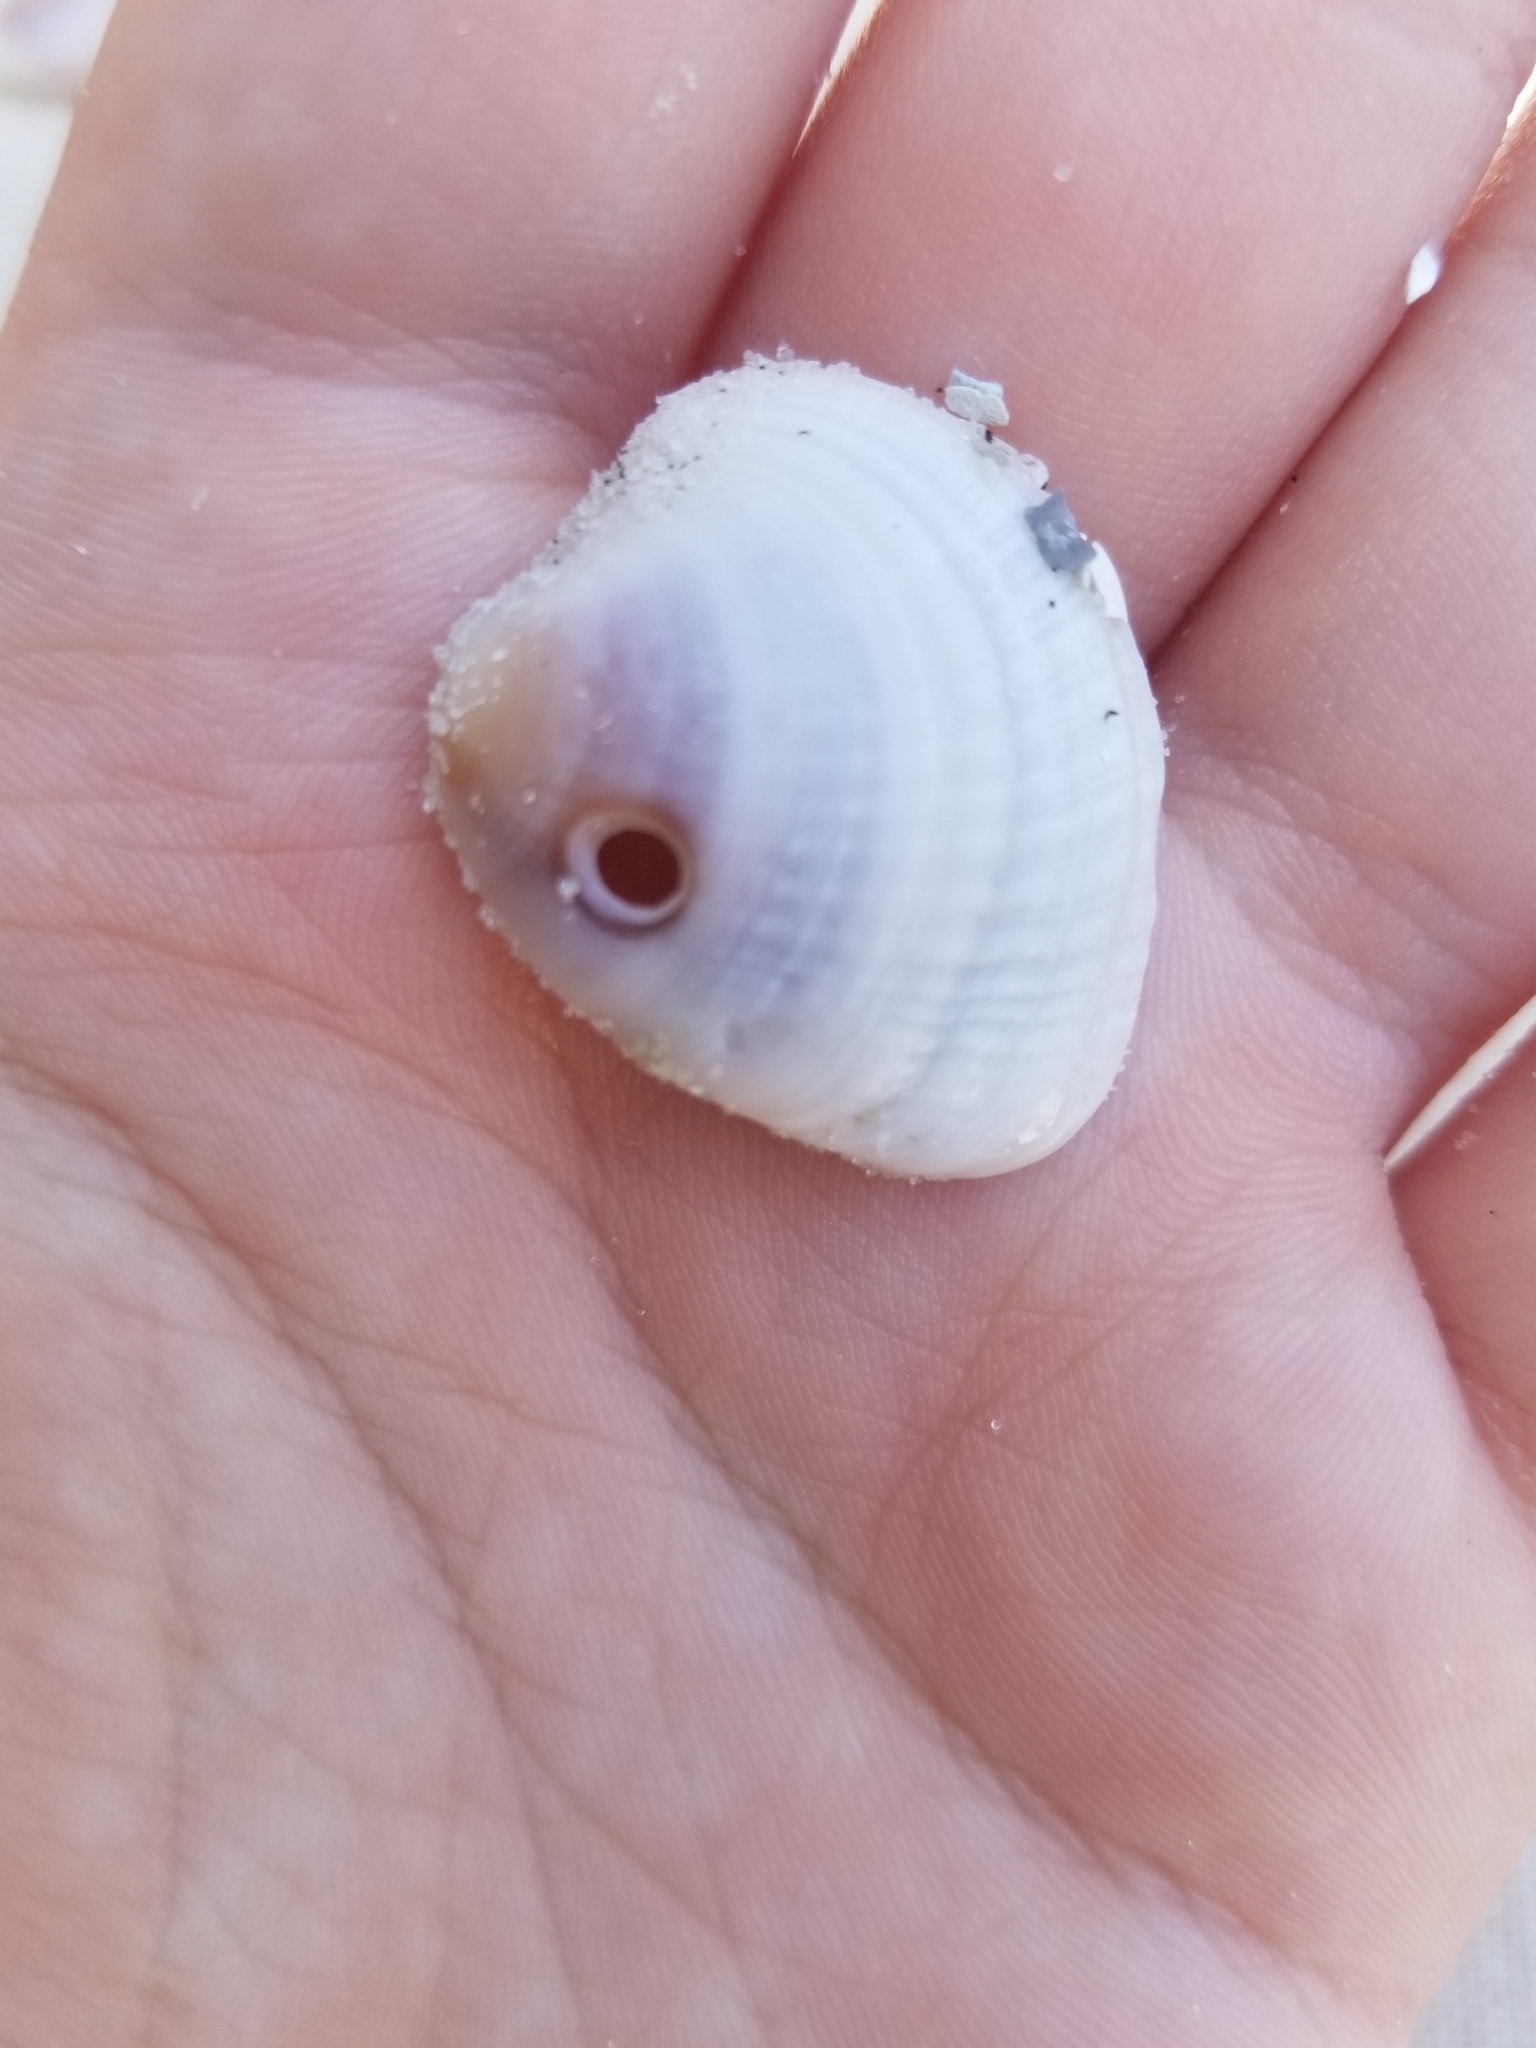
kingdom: Animalia
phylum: Mollusca
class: Bivalvia
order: Venerida
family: Veneridae
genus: Chione
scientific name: Chione elevata
